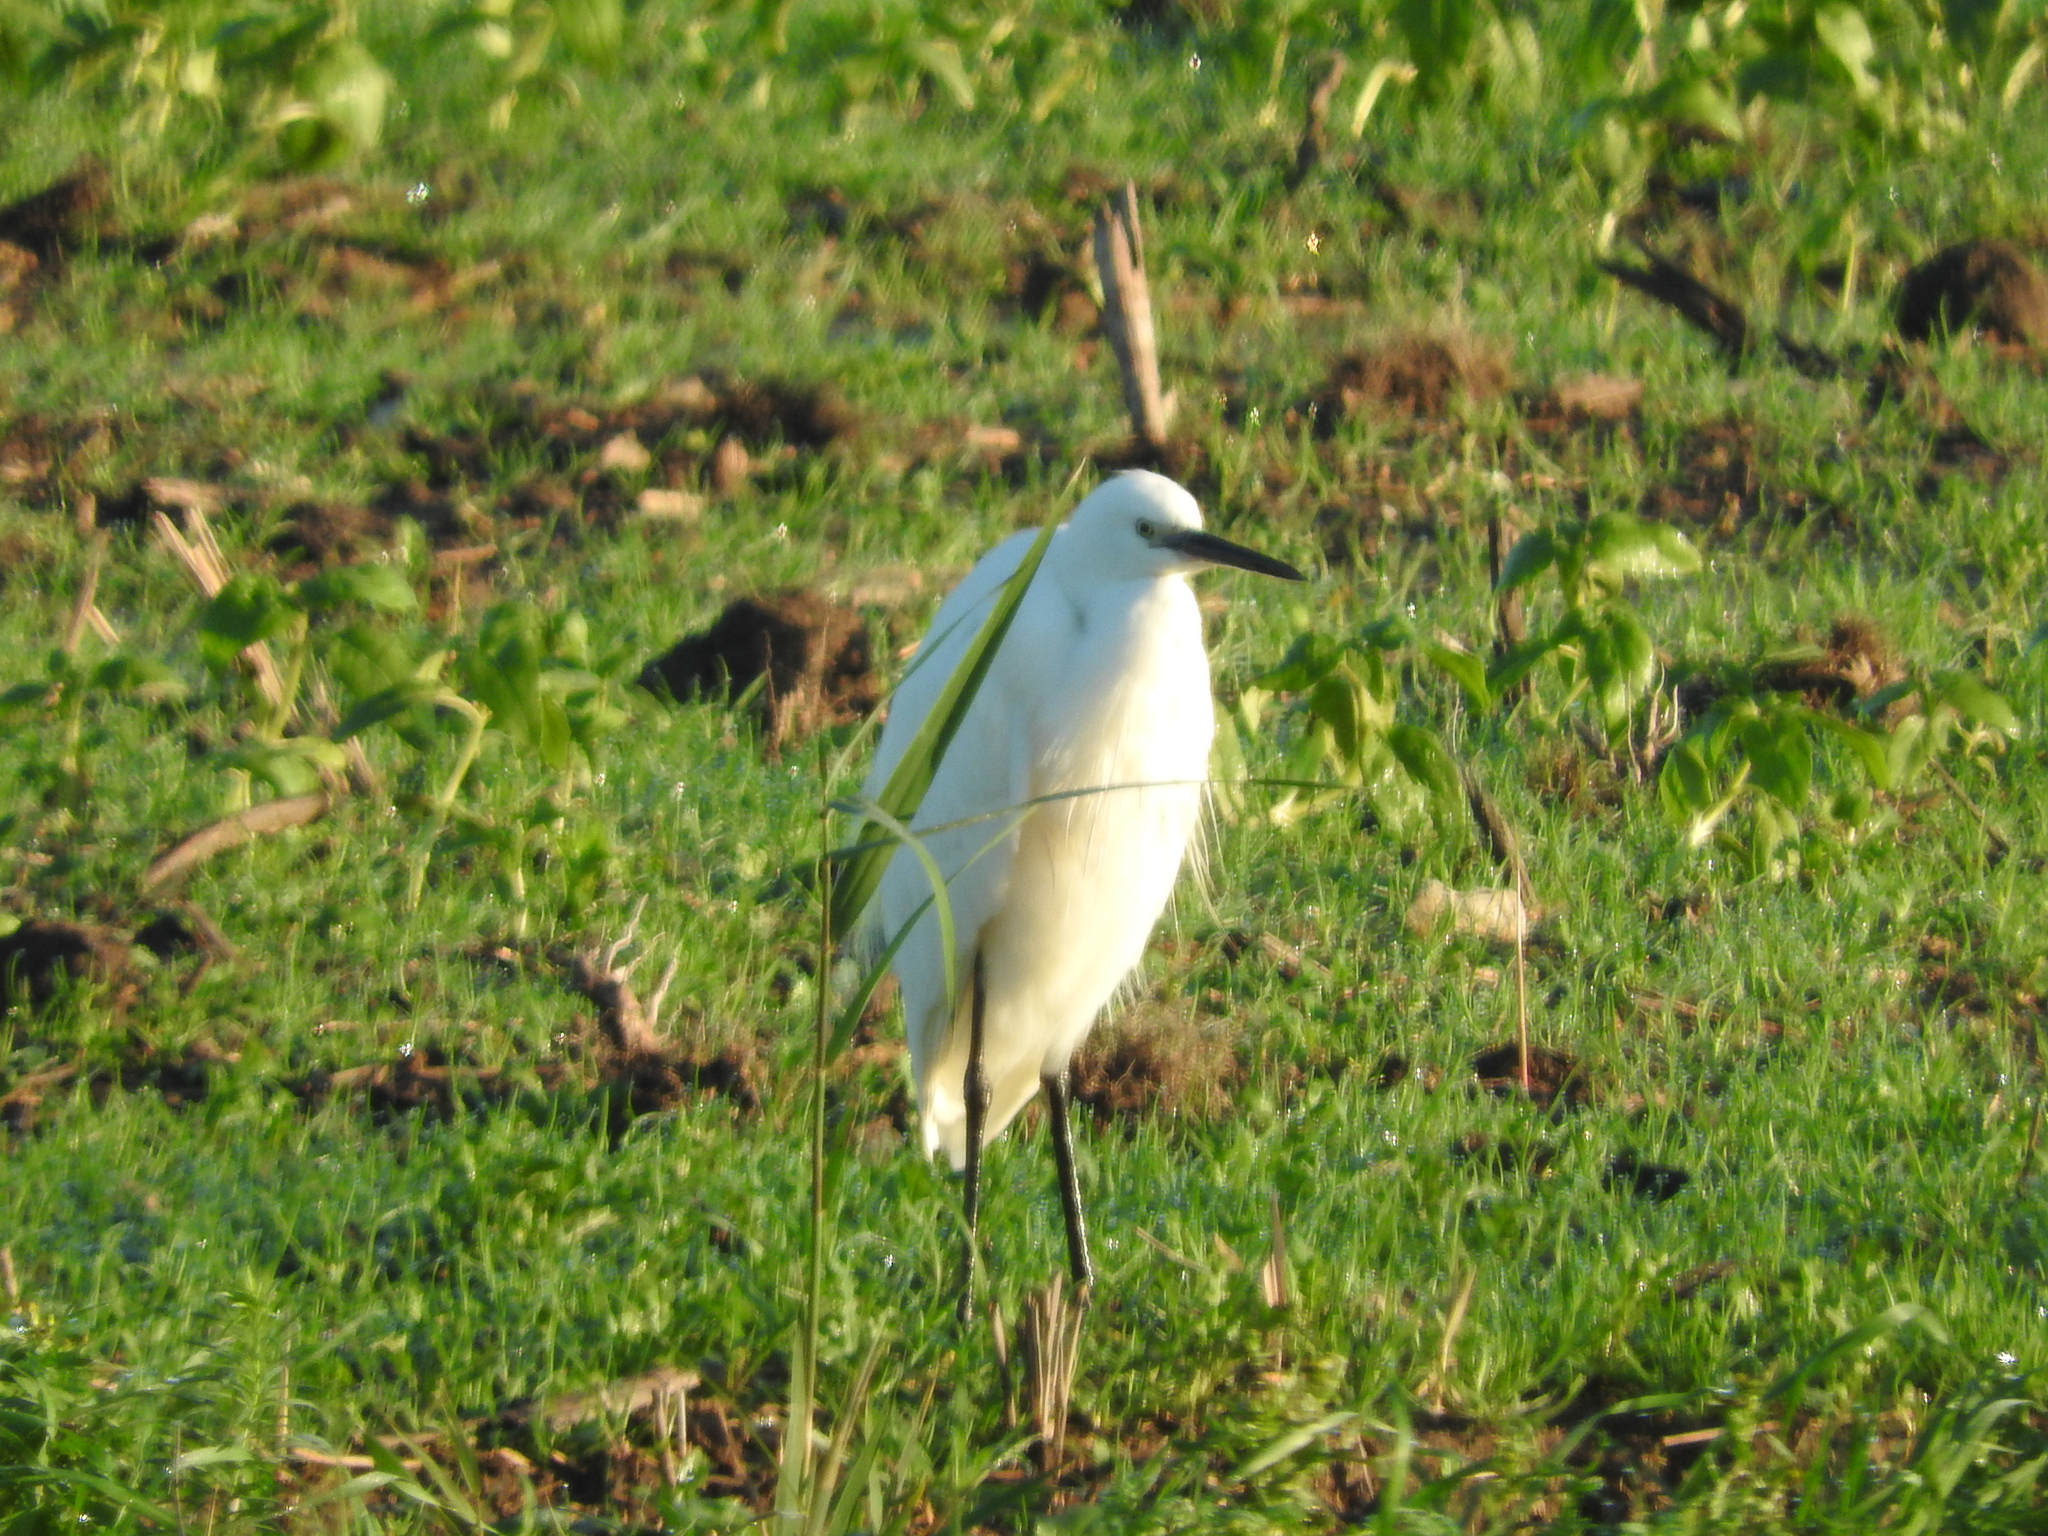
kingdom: Animalia
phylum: Chordata
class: Aves
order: Pelecaniformes
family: Ardeidae
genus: Egretta
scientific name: Egretta garzetta
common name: Little egret
